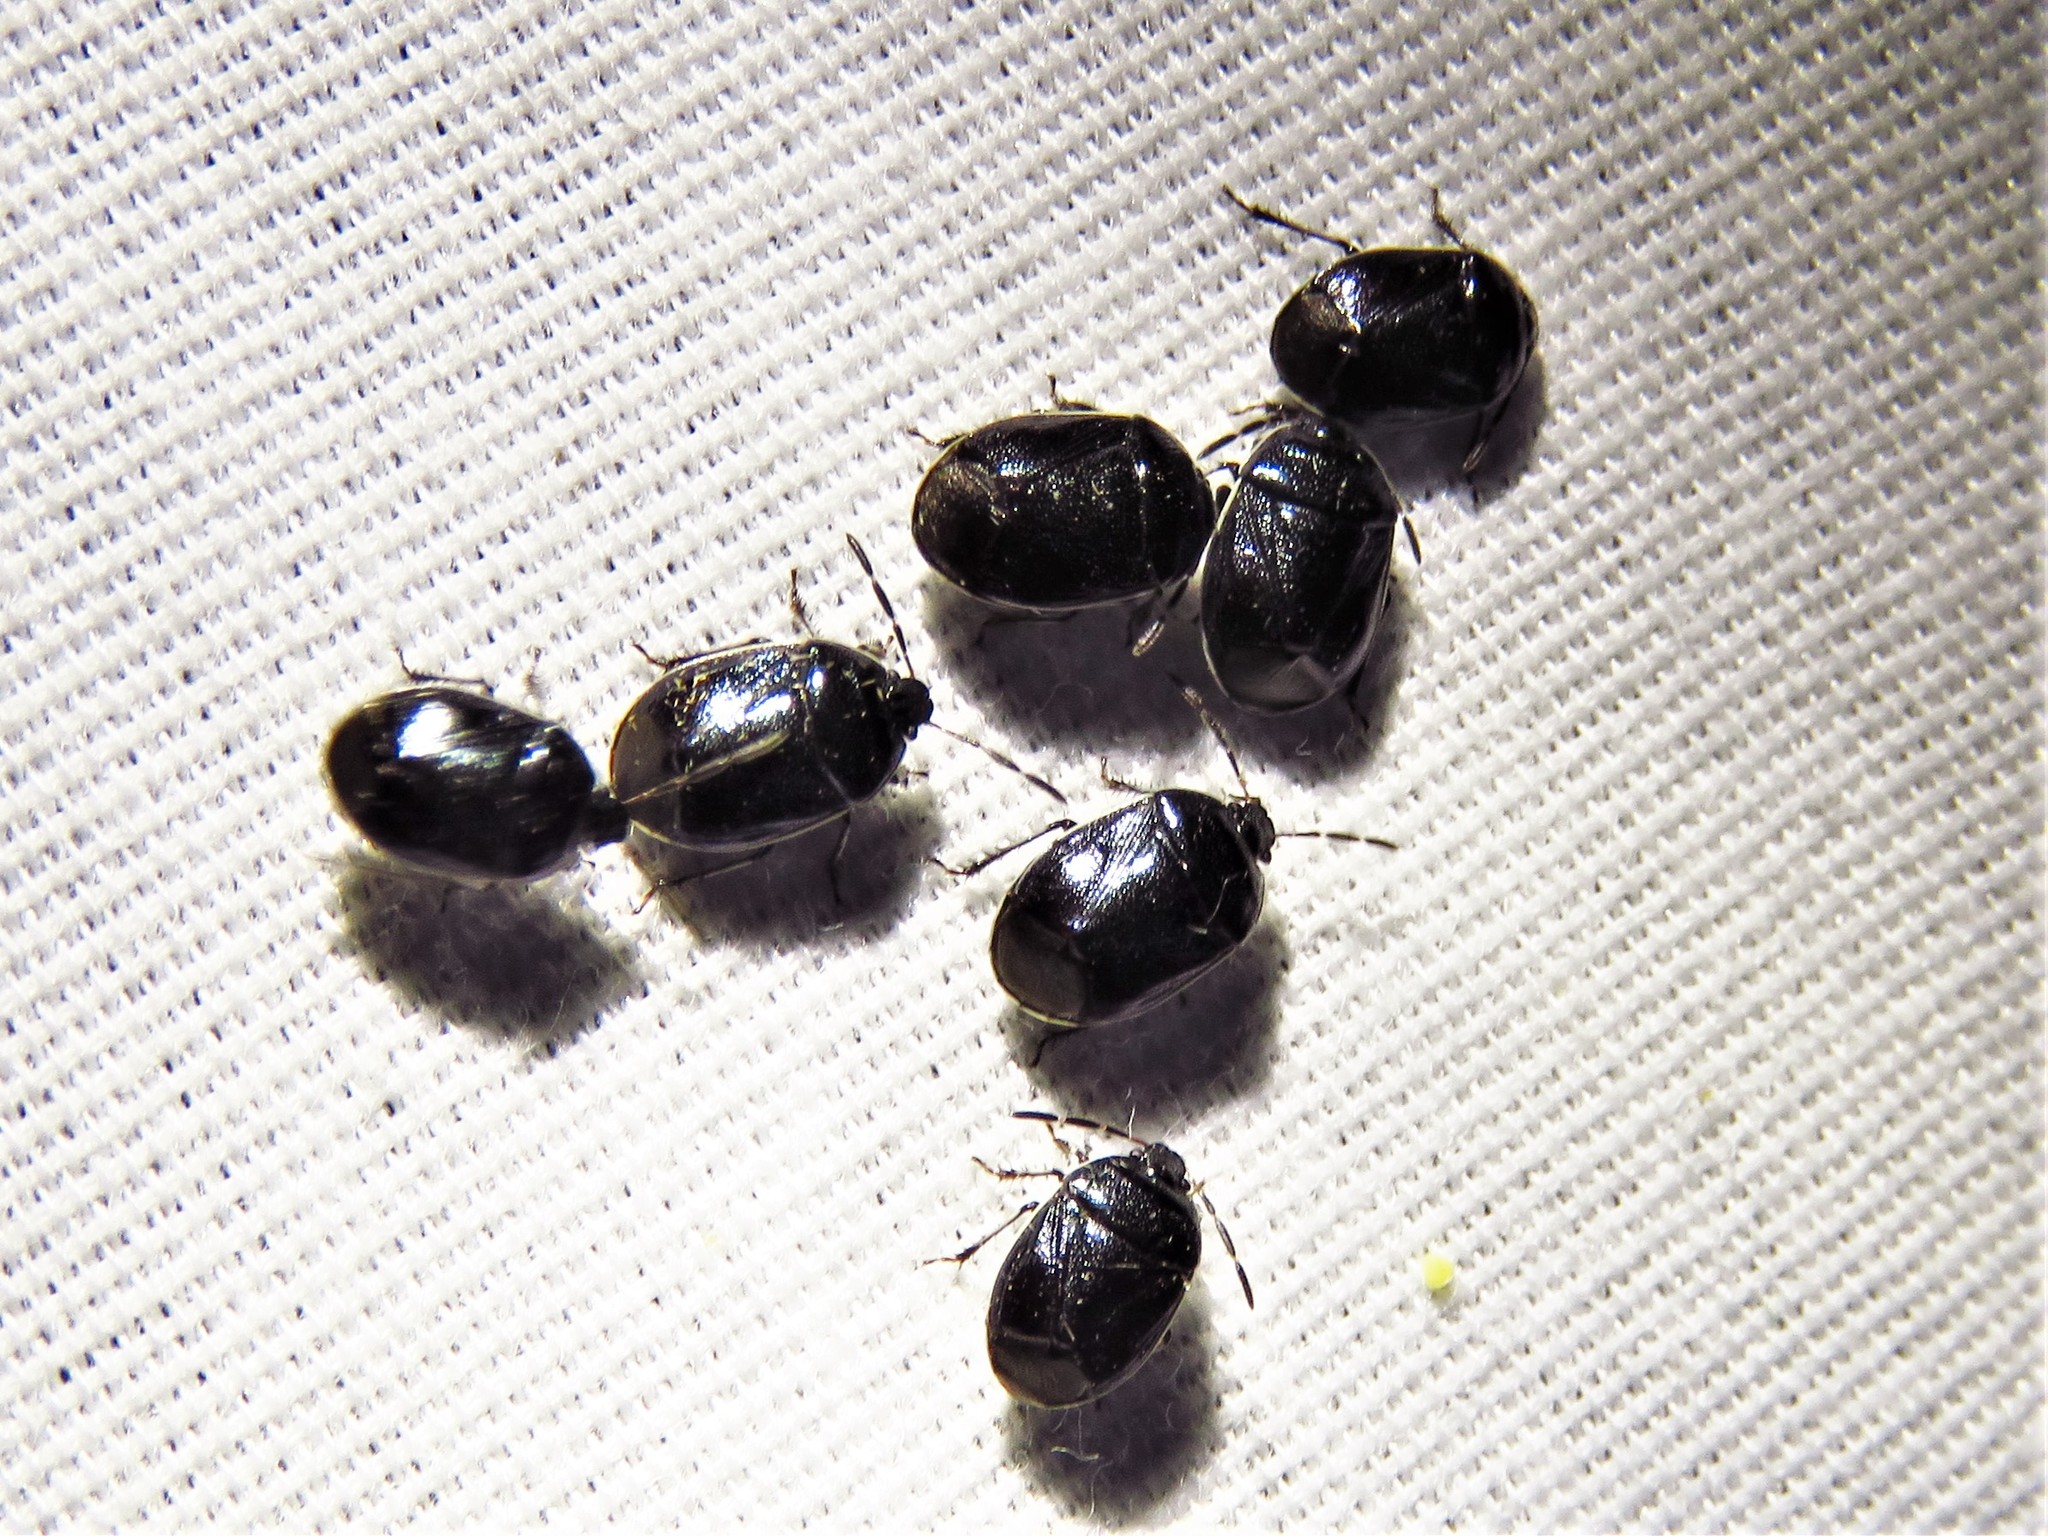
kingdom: Animalia
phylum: Arthropoda
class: Insecta
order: Hemiptera
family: Cydnidae
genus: Sehirus
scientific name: Sehirus cinctus
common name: White-margined burrower bug
